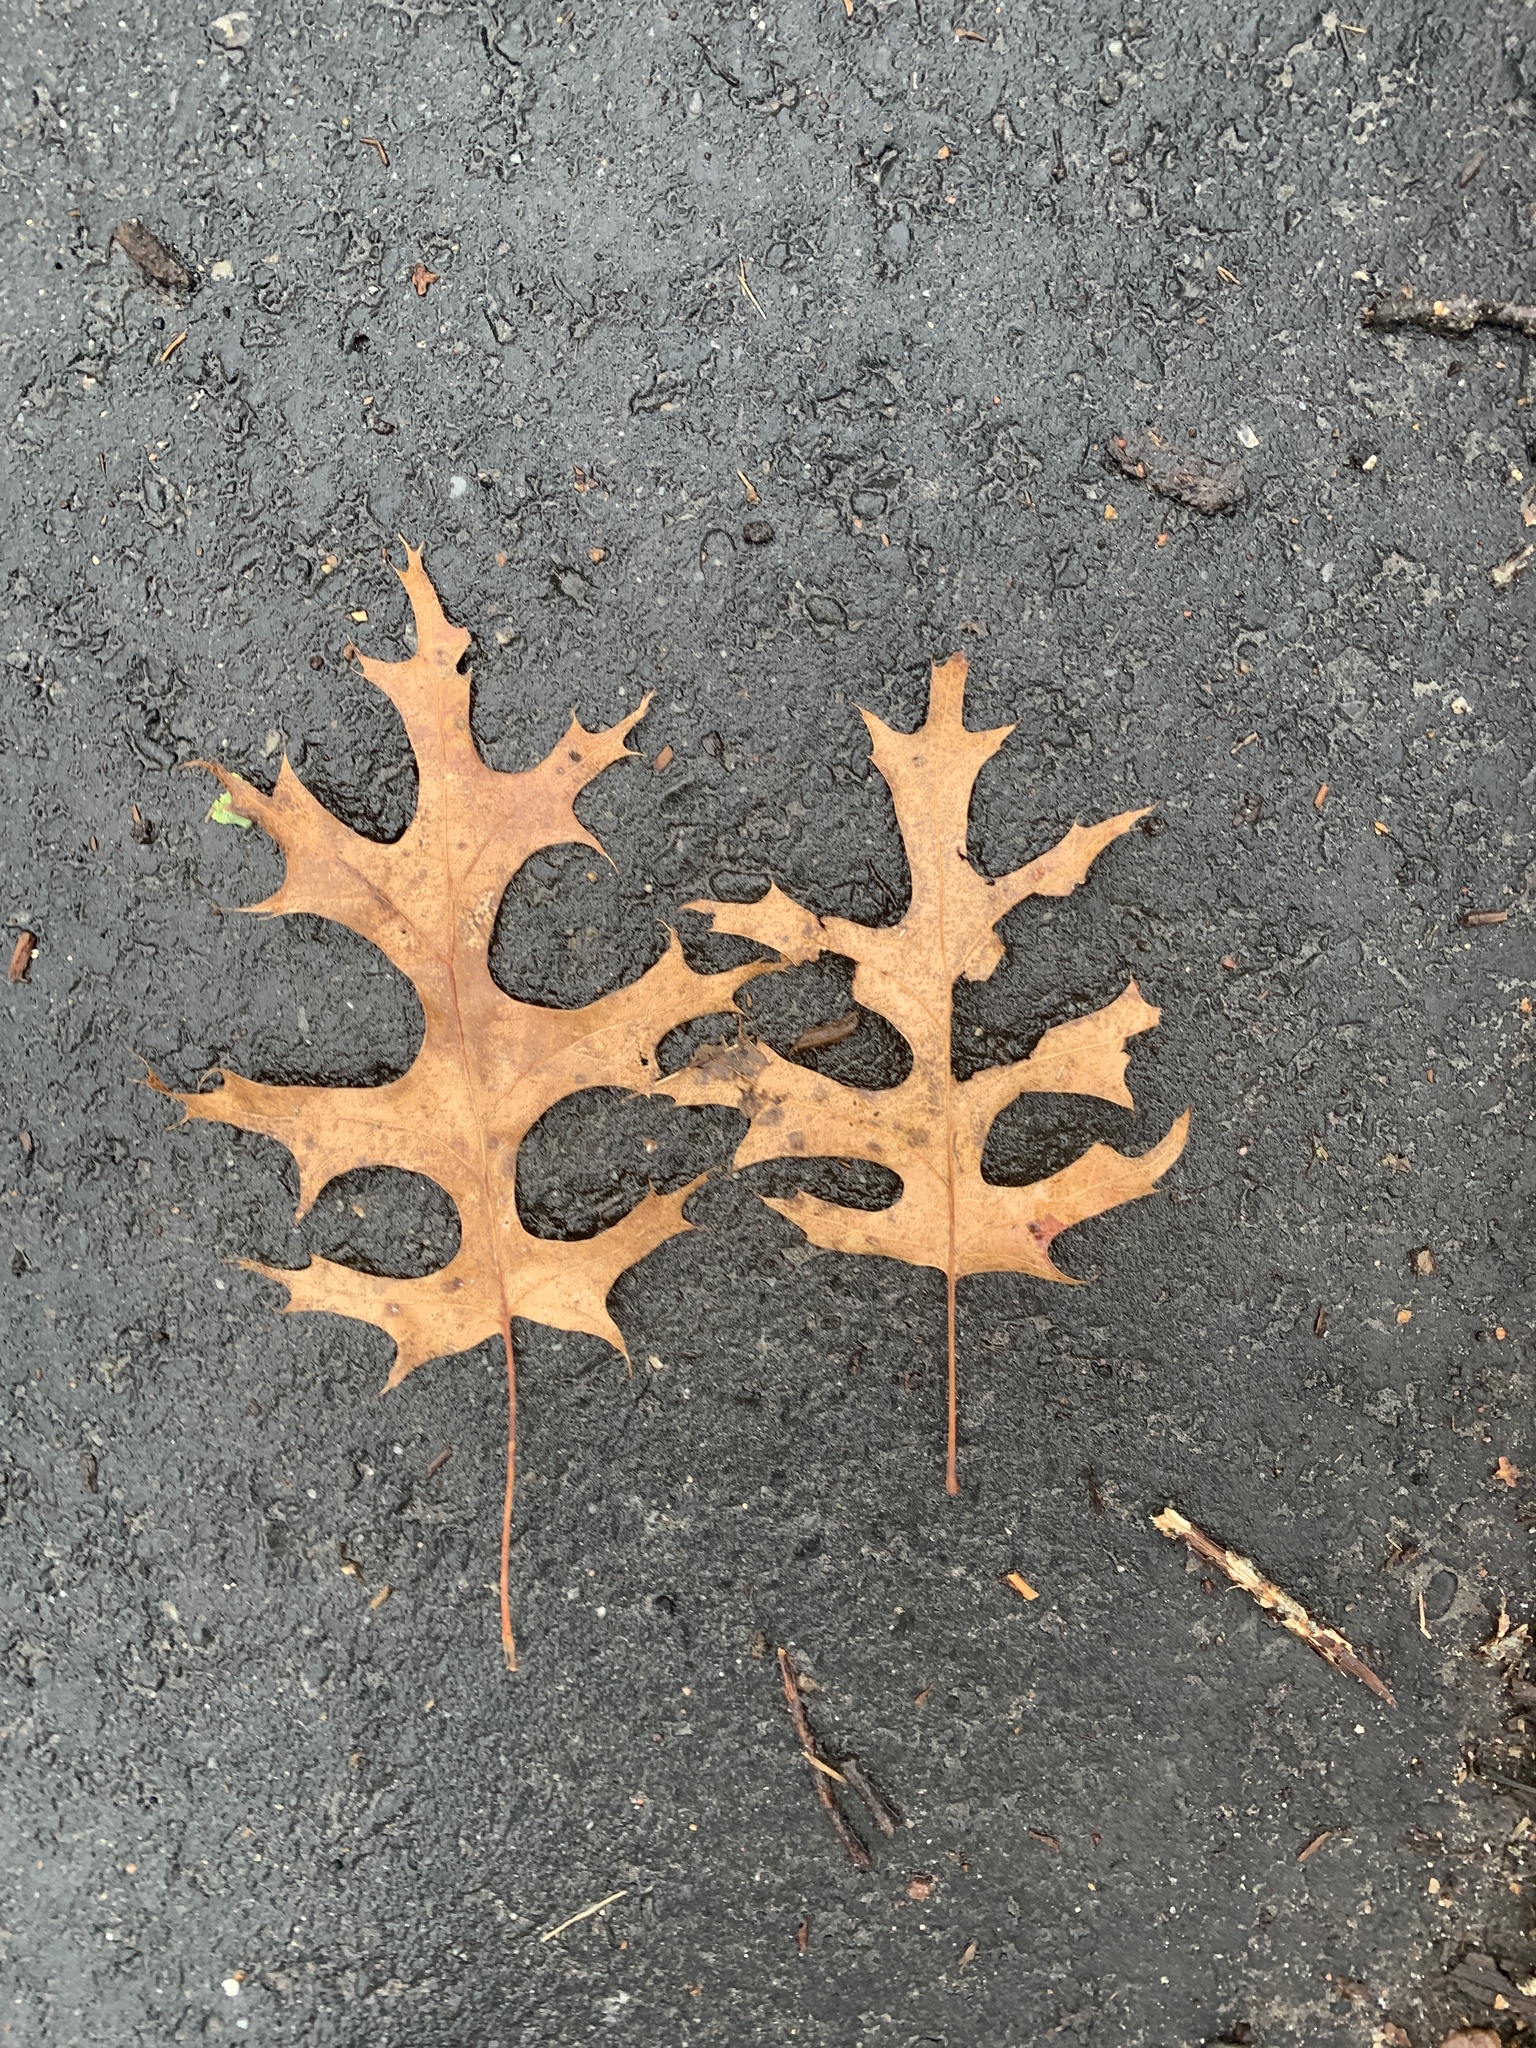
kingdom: Plantae
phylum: Tracheophyta
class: Magnoliopsida
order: Fagales
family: Fagaceae
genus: Quercus
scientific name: Quercus coccinea
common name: Scarlet oak
